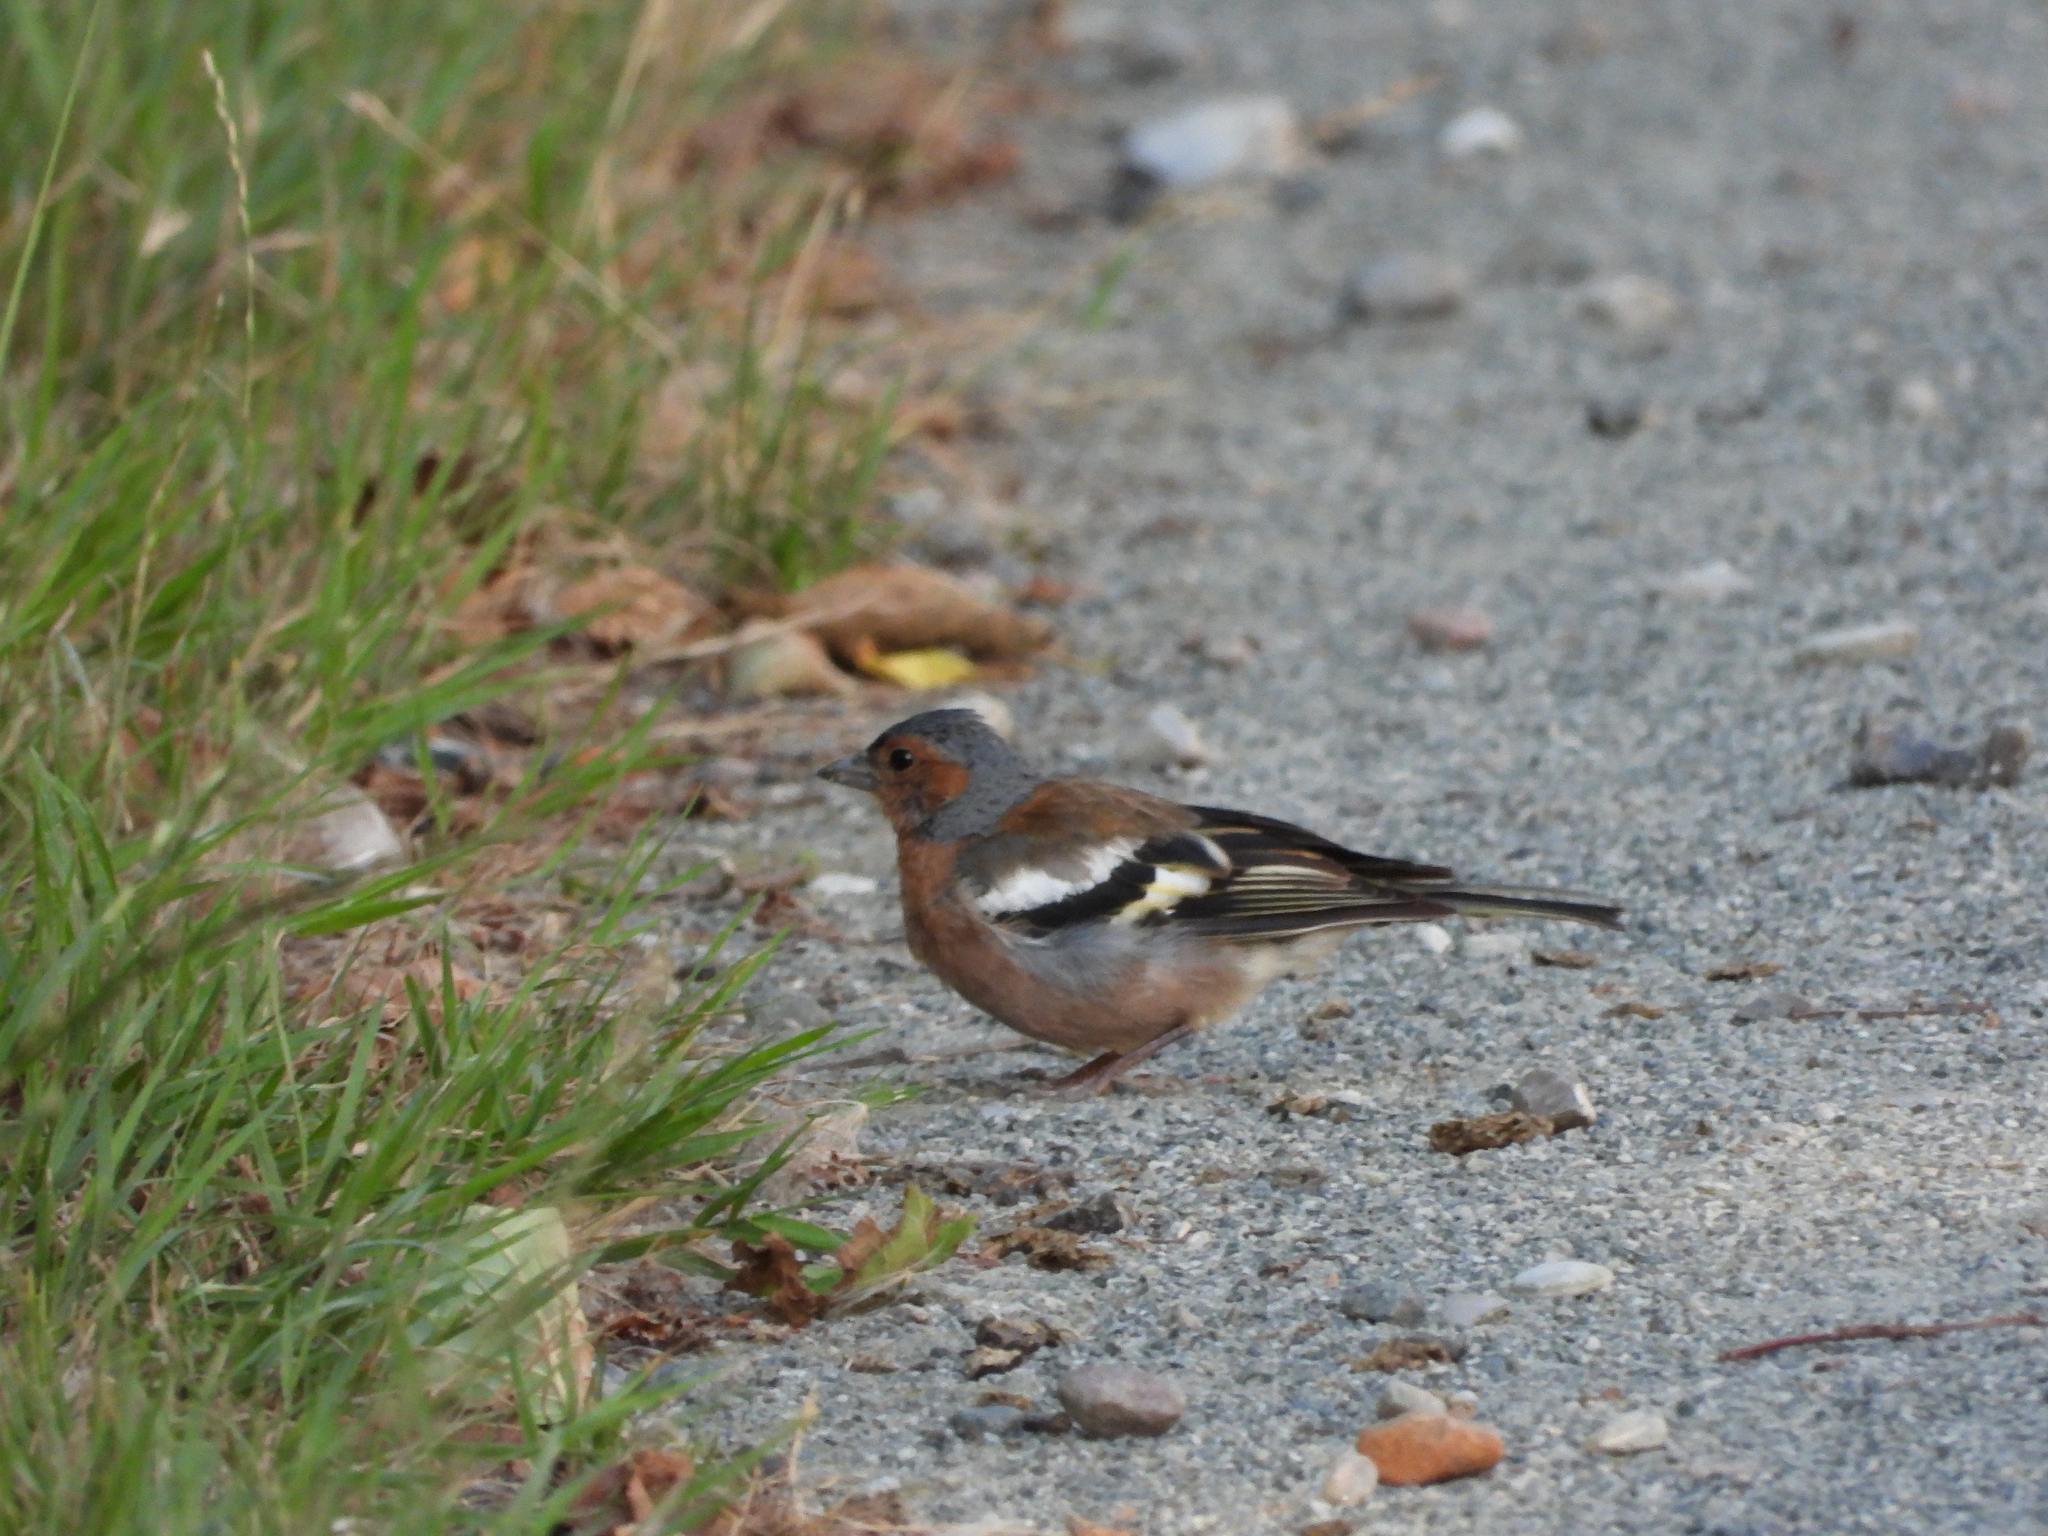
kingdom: Animalia
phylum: Chordata
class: Aves
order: Passeriformes
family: Fringillidae
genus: Fringilla
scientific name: Fringilla coelebs
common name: Common chaffinch
